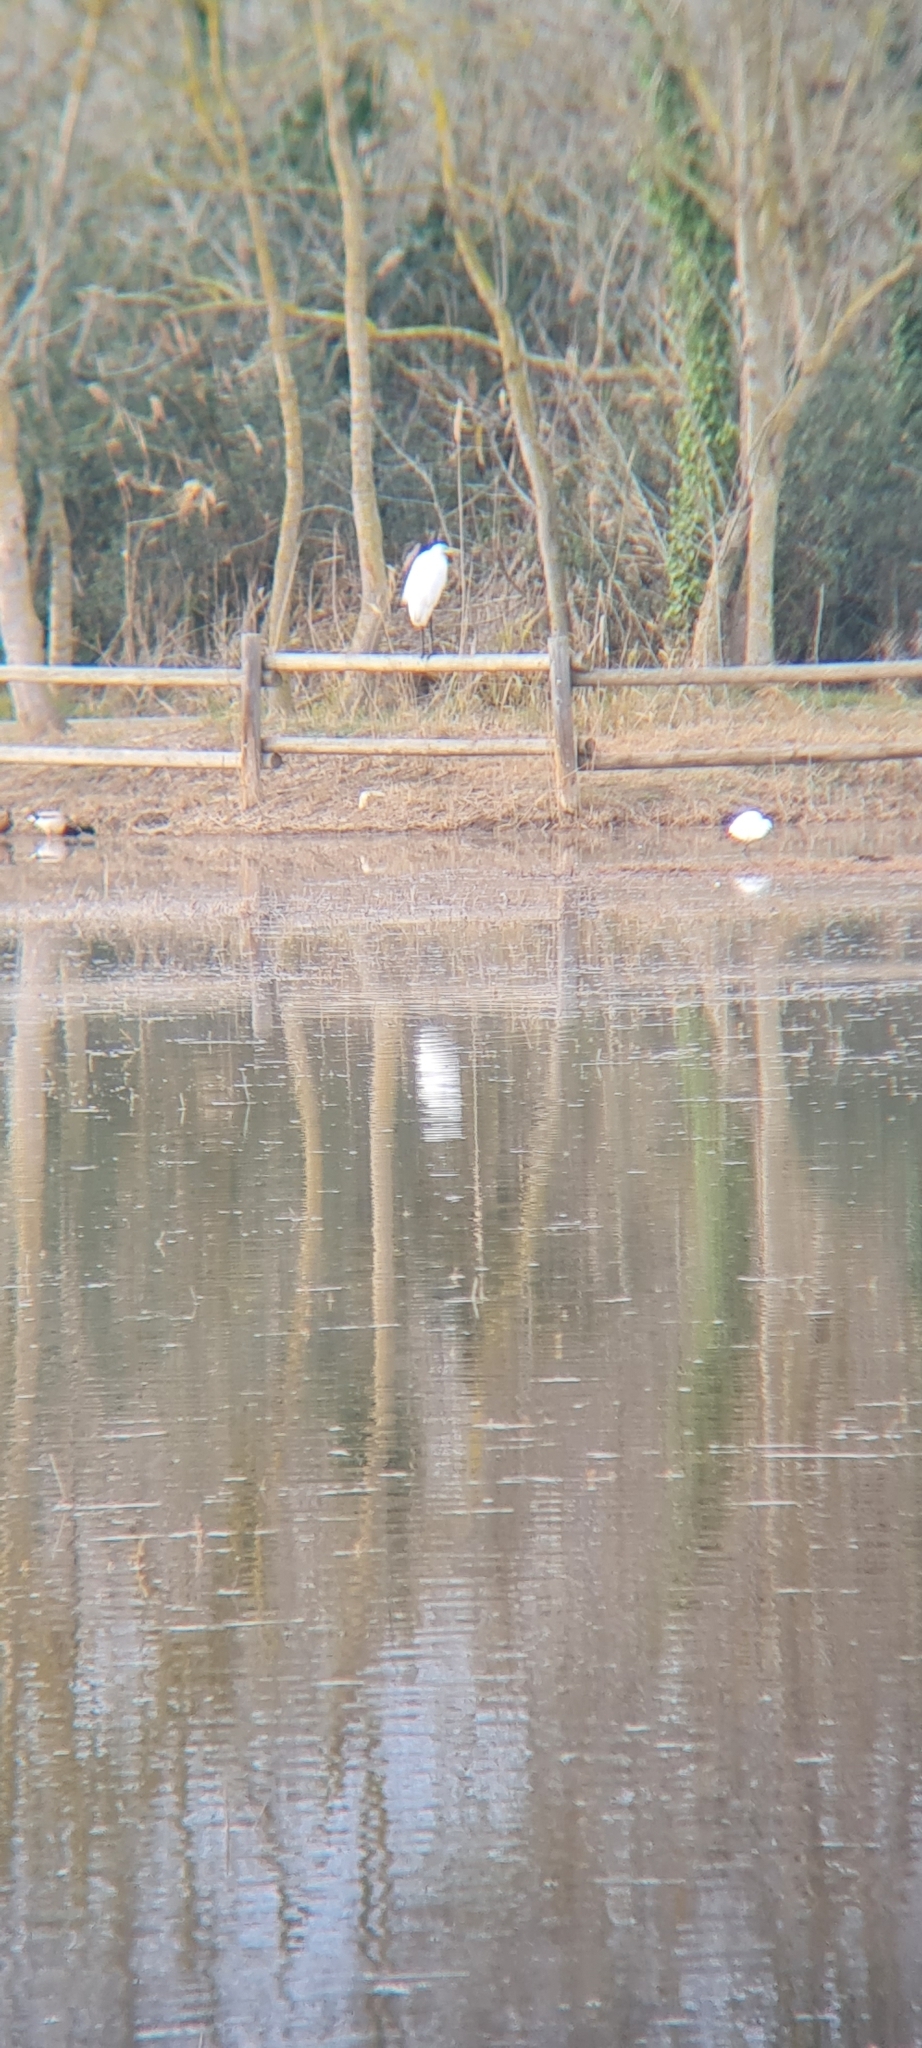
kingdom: Animalia
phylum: Chordata
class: Aves
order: Pelecaniformes
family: Ardeidae
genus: Egretta
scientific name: Egretta garzetta
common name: Little egret
